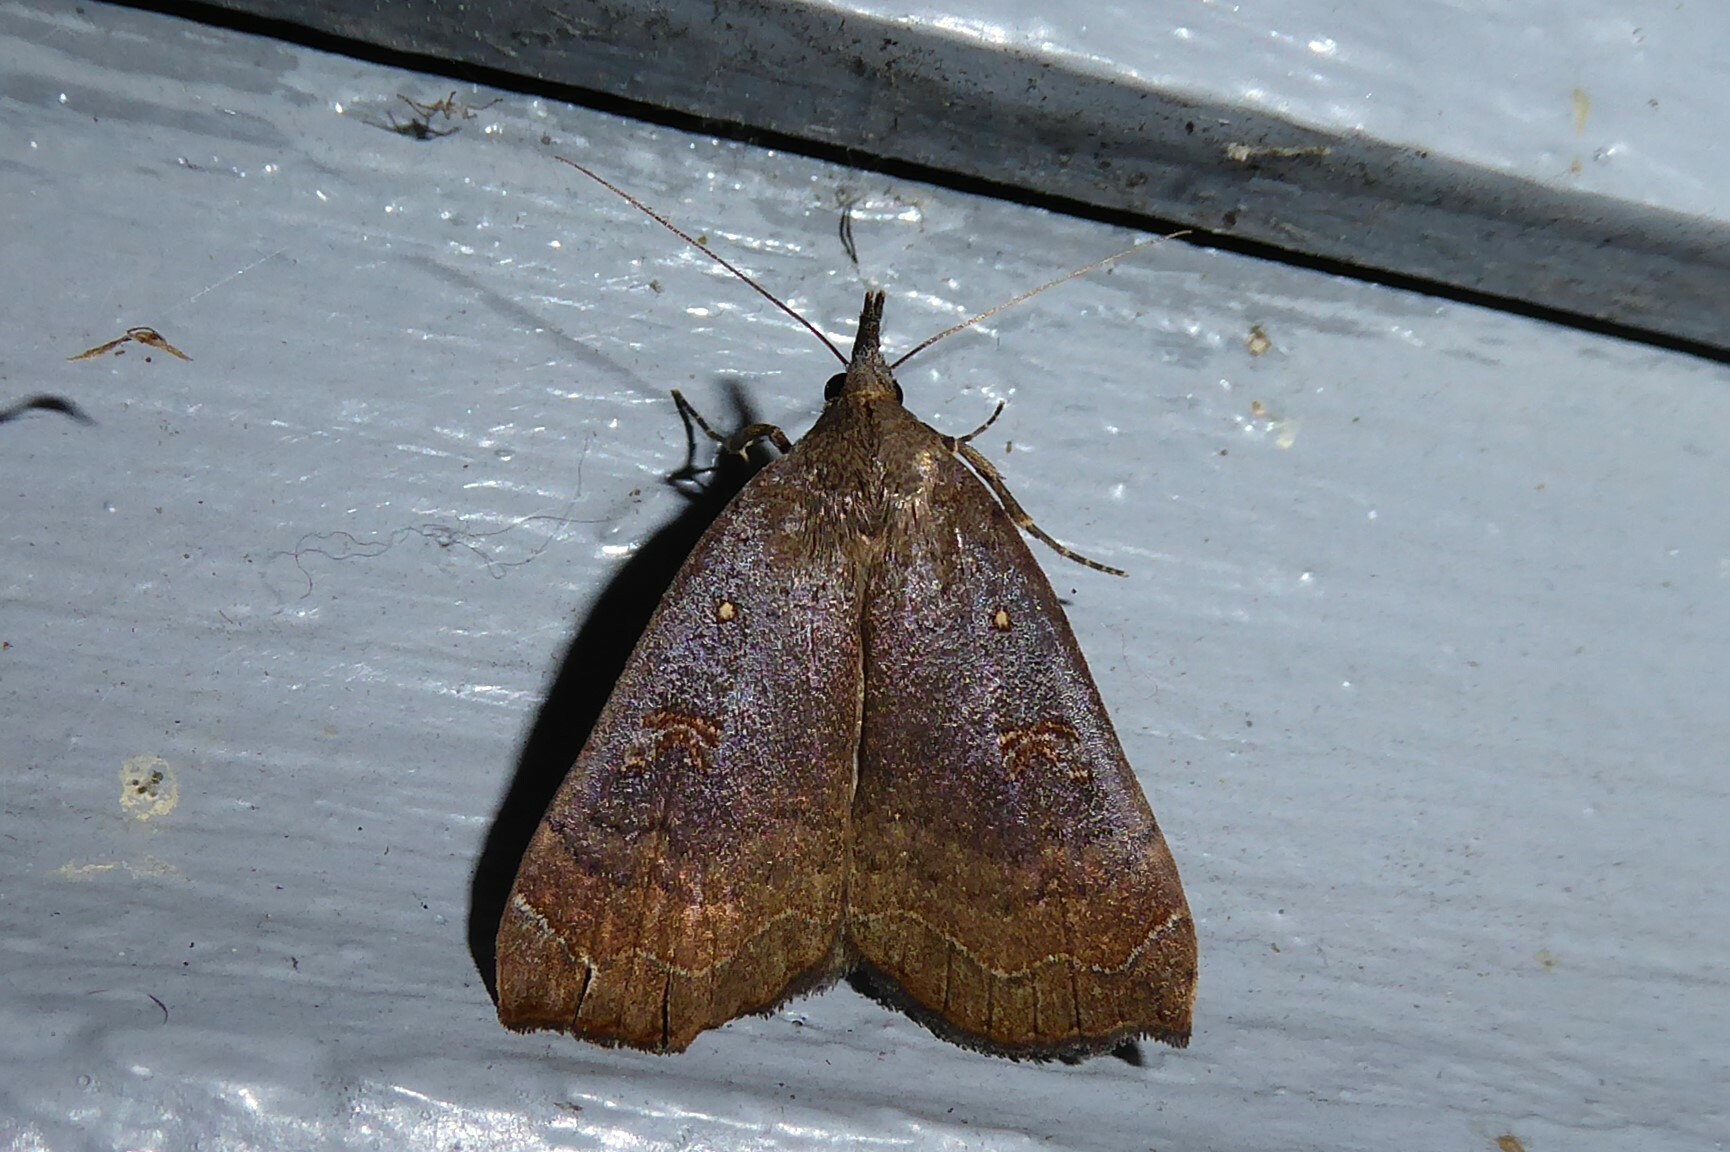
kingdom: Animalia
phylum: Arthropoda
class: Insecta
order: Lepidoptera
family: Erebidae
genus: Rhapsa
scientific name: Rhapsa scotosialis
